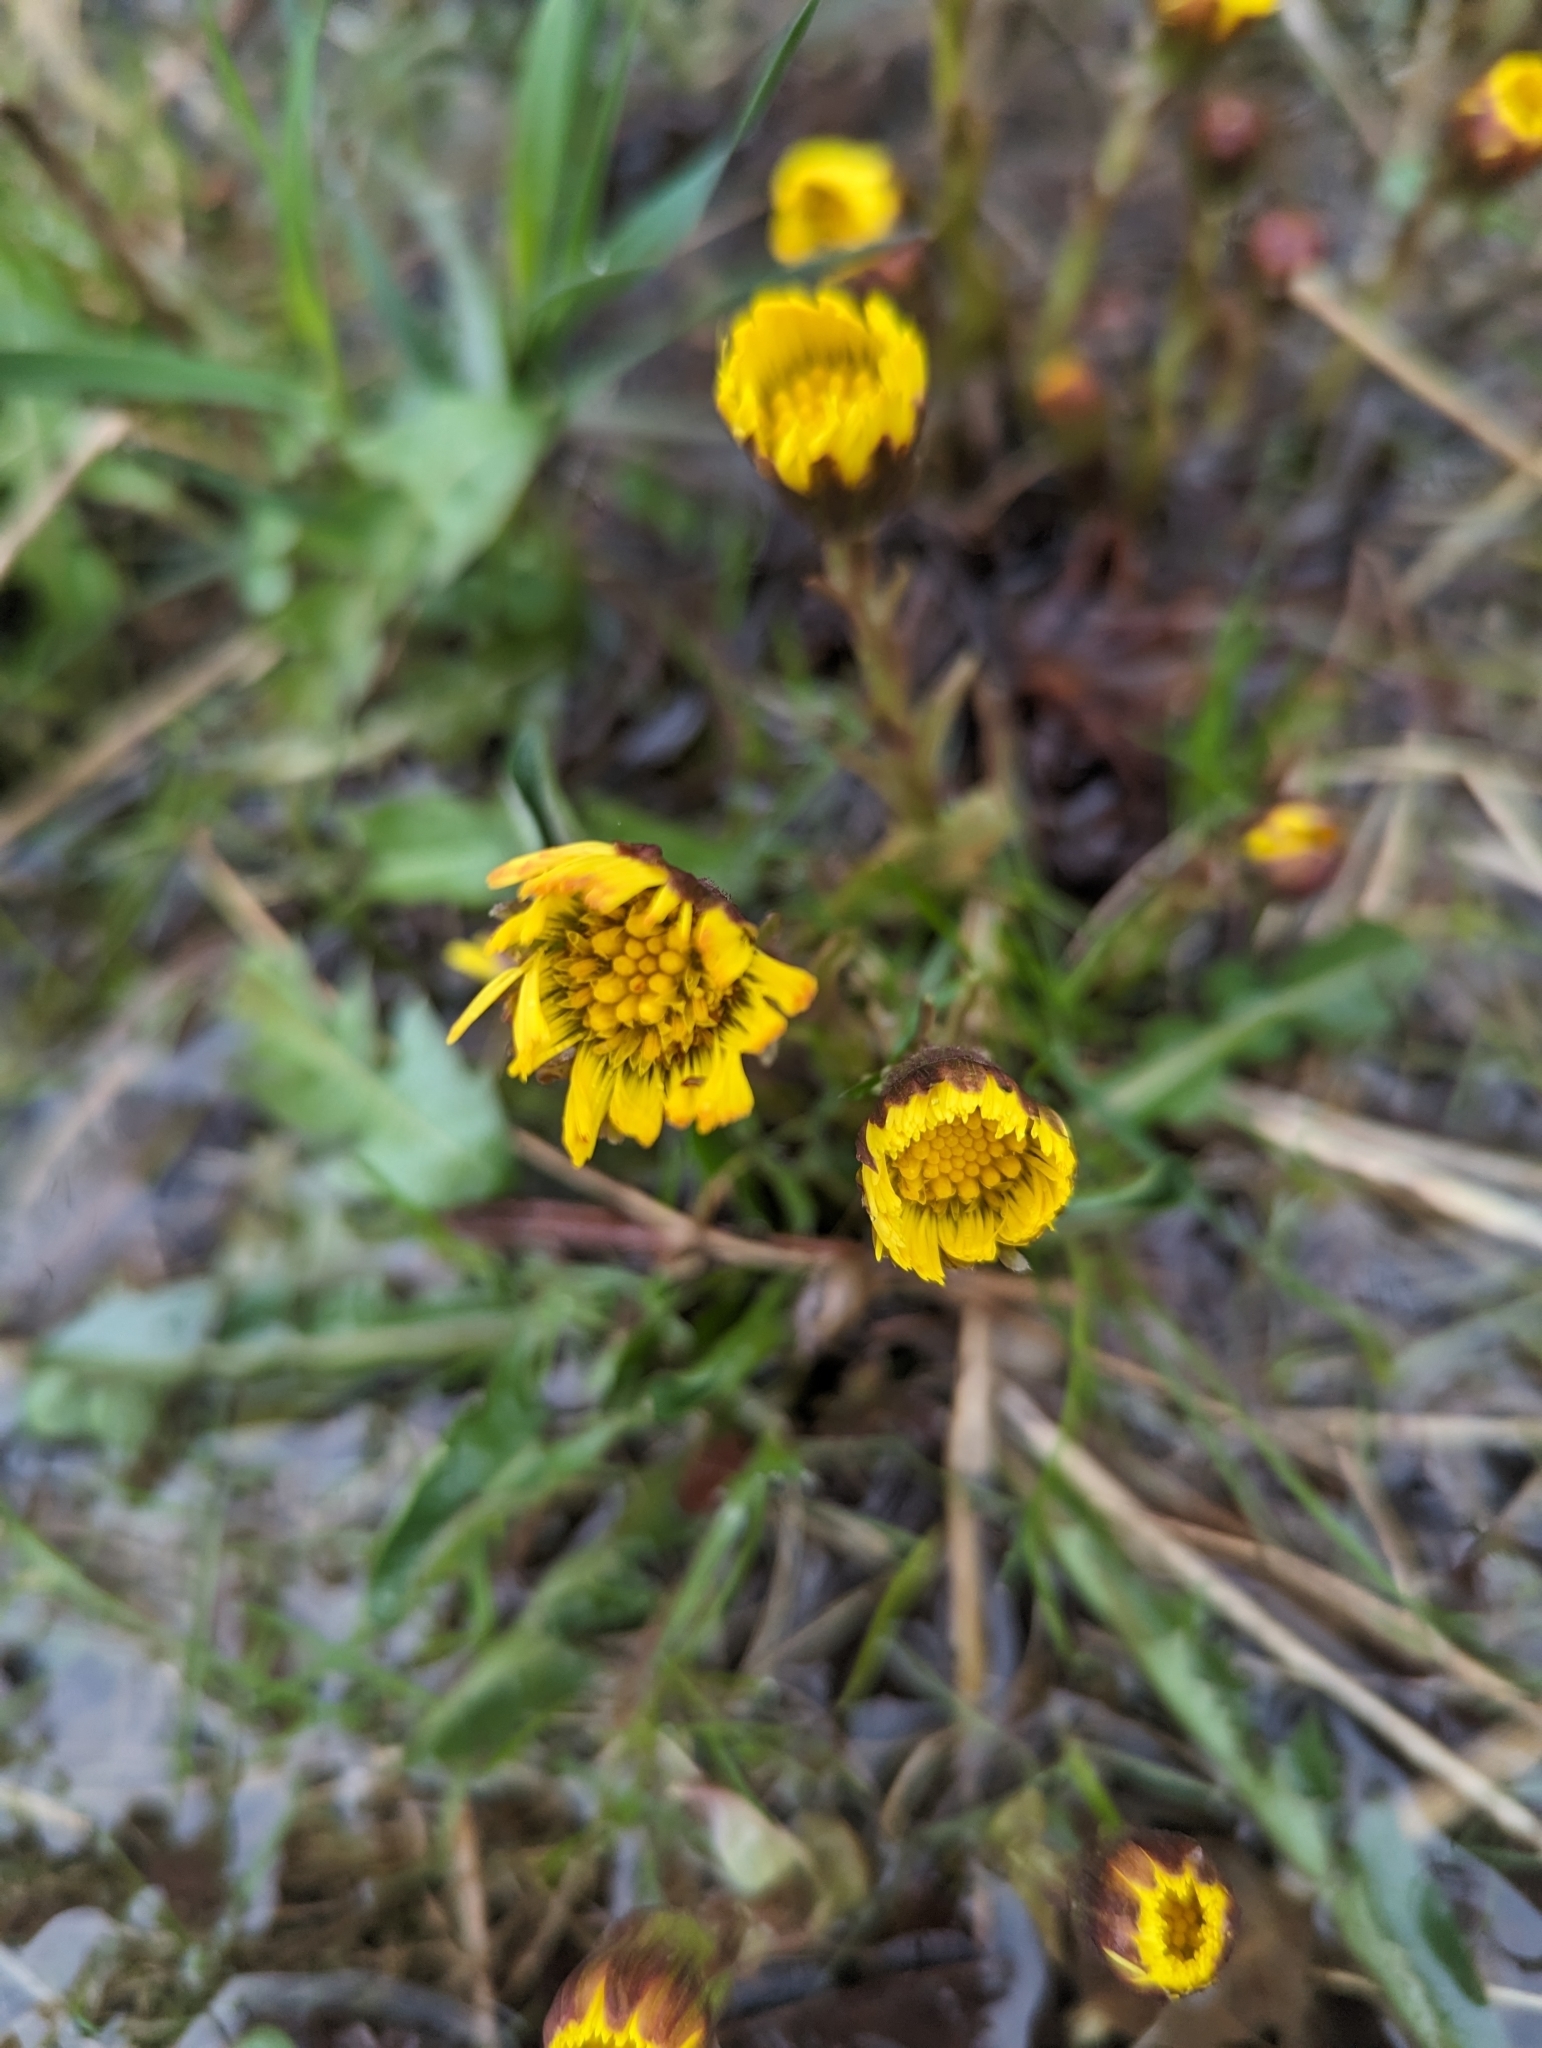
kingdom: Plantae
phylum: Tracheophyta
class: Magnoliopsida
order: Asterales
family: Asteraceae
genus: Tussilago
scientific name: Tussilago farfara
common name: Coltsfoot
